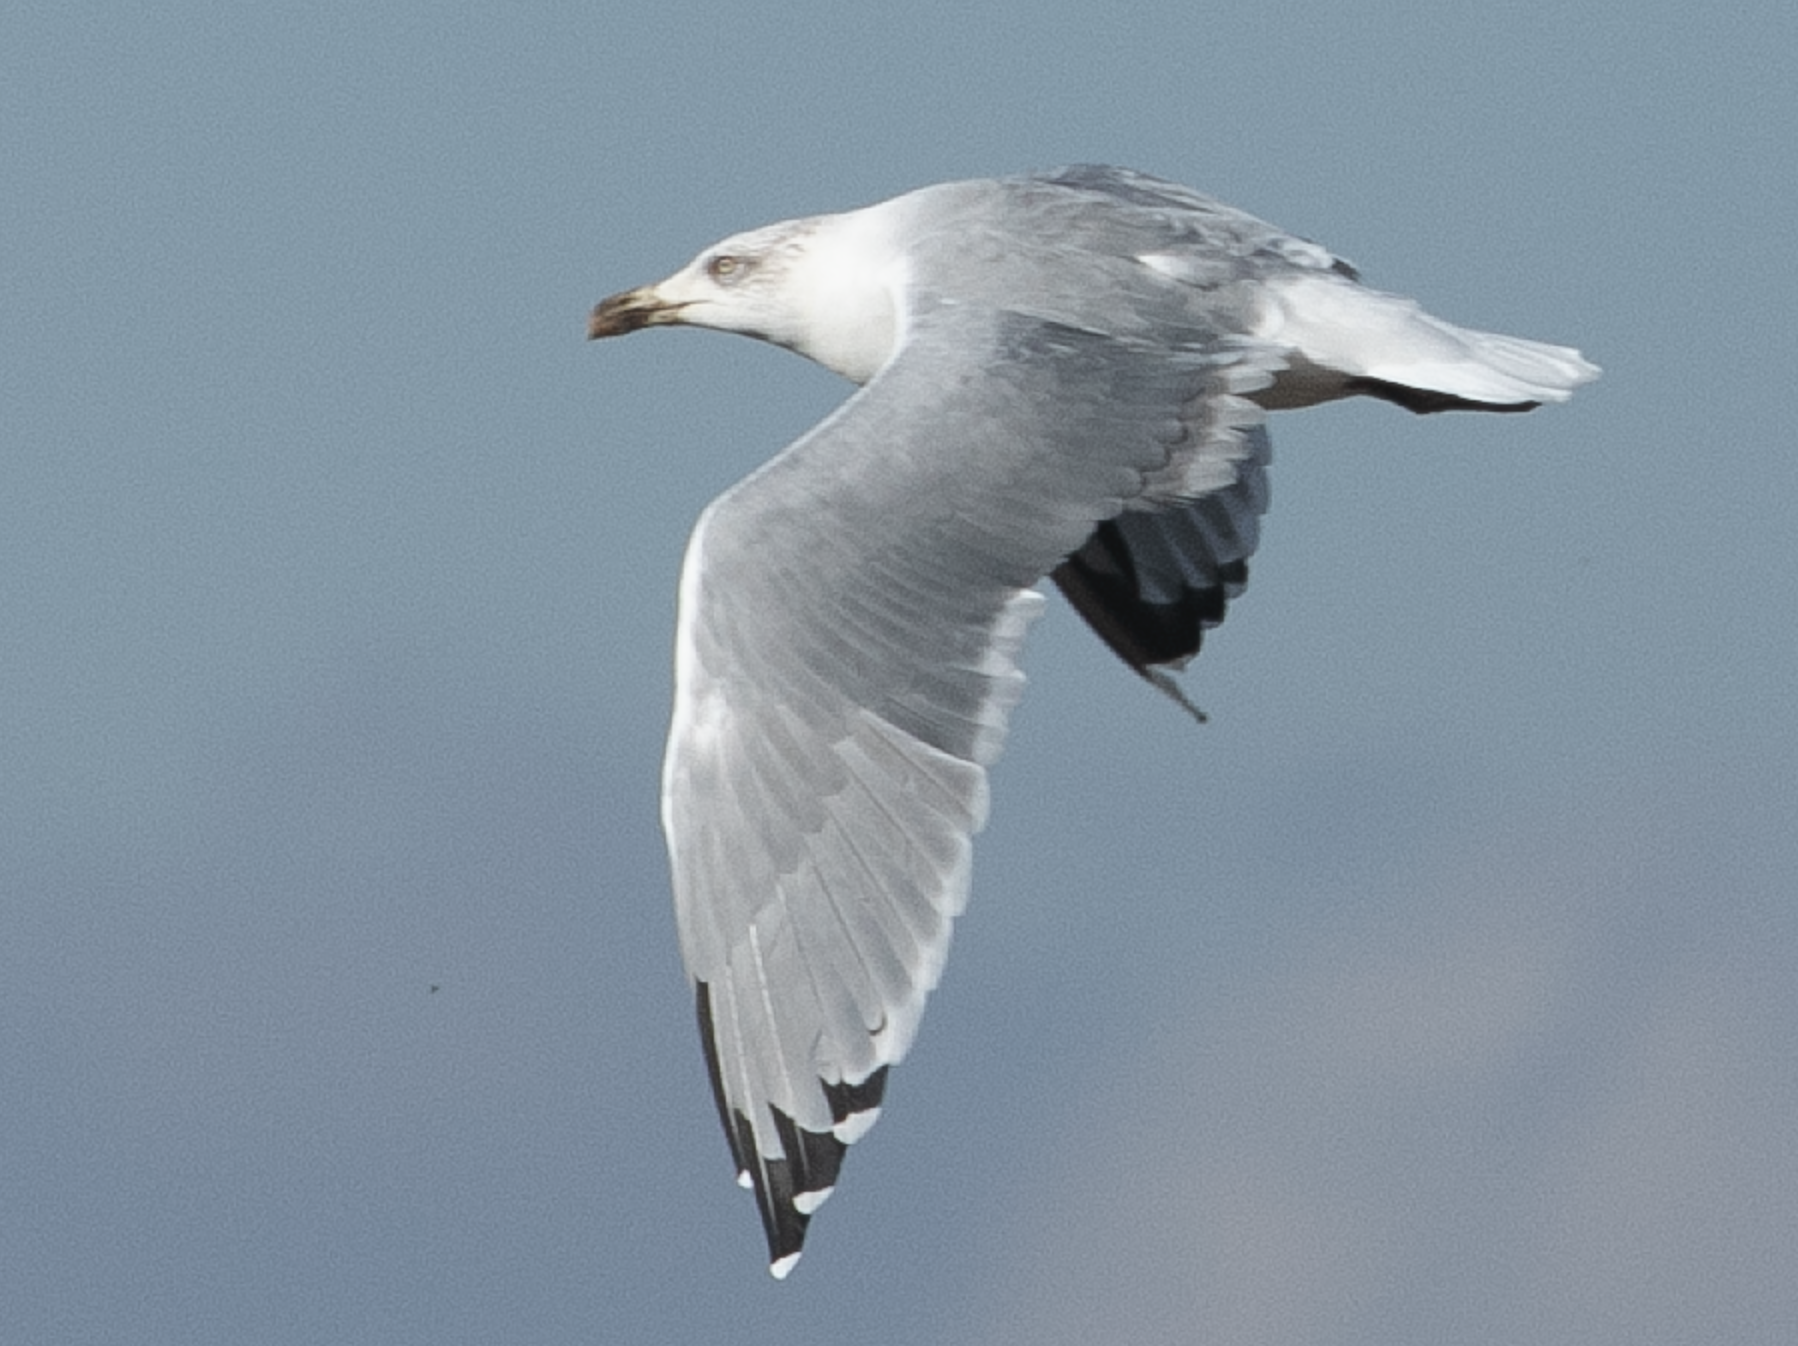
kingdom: Animalia
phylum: Chordata
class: Aves
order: Charadriiformes
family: Laridae
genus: Larus
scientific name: Larus michahellis
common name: Yellow-legged gull
